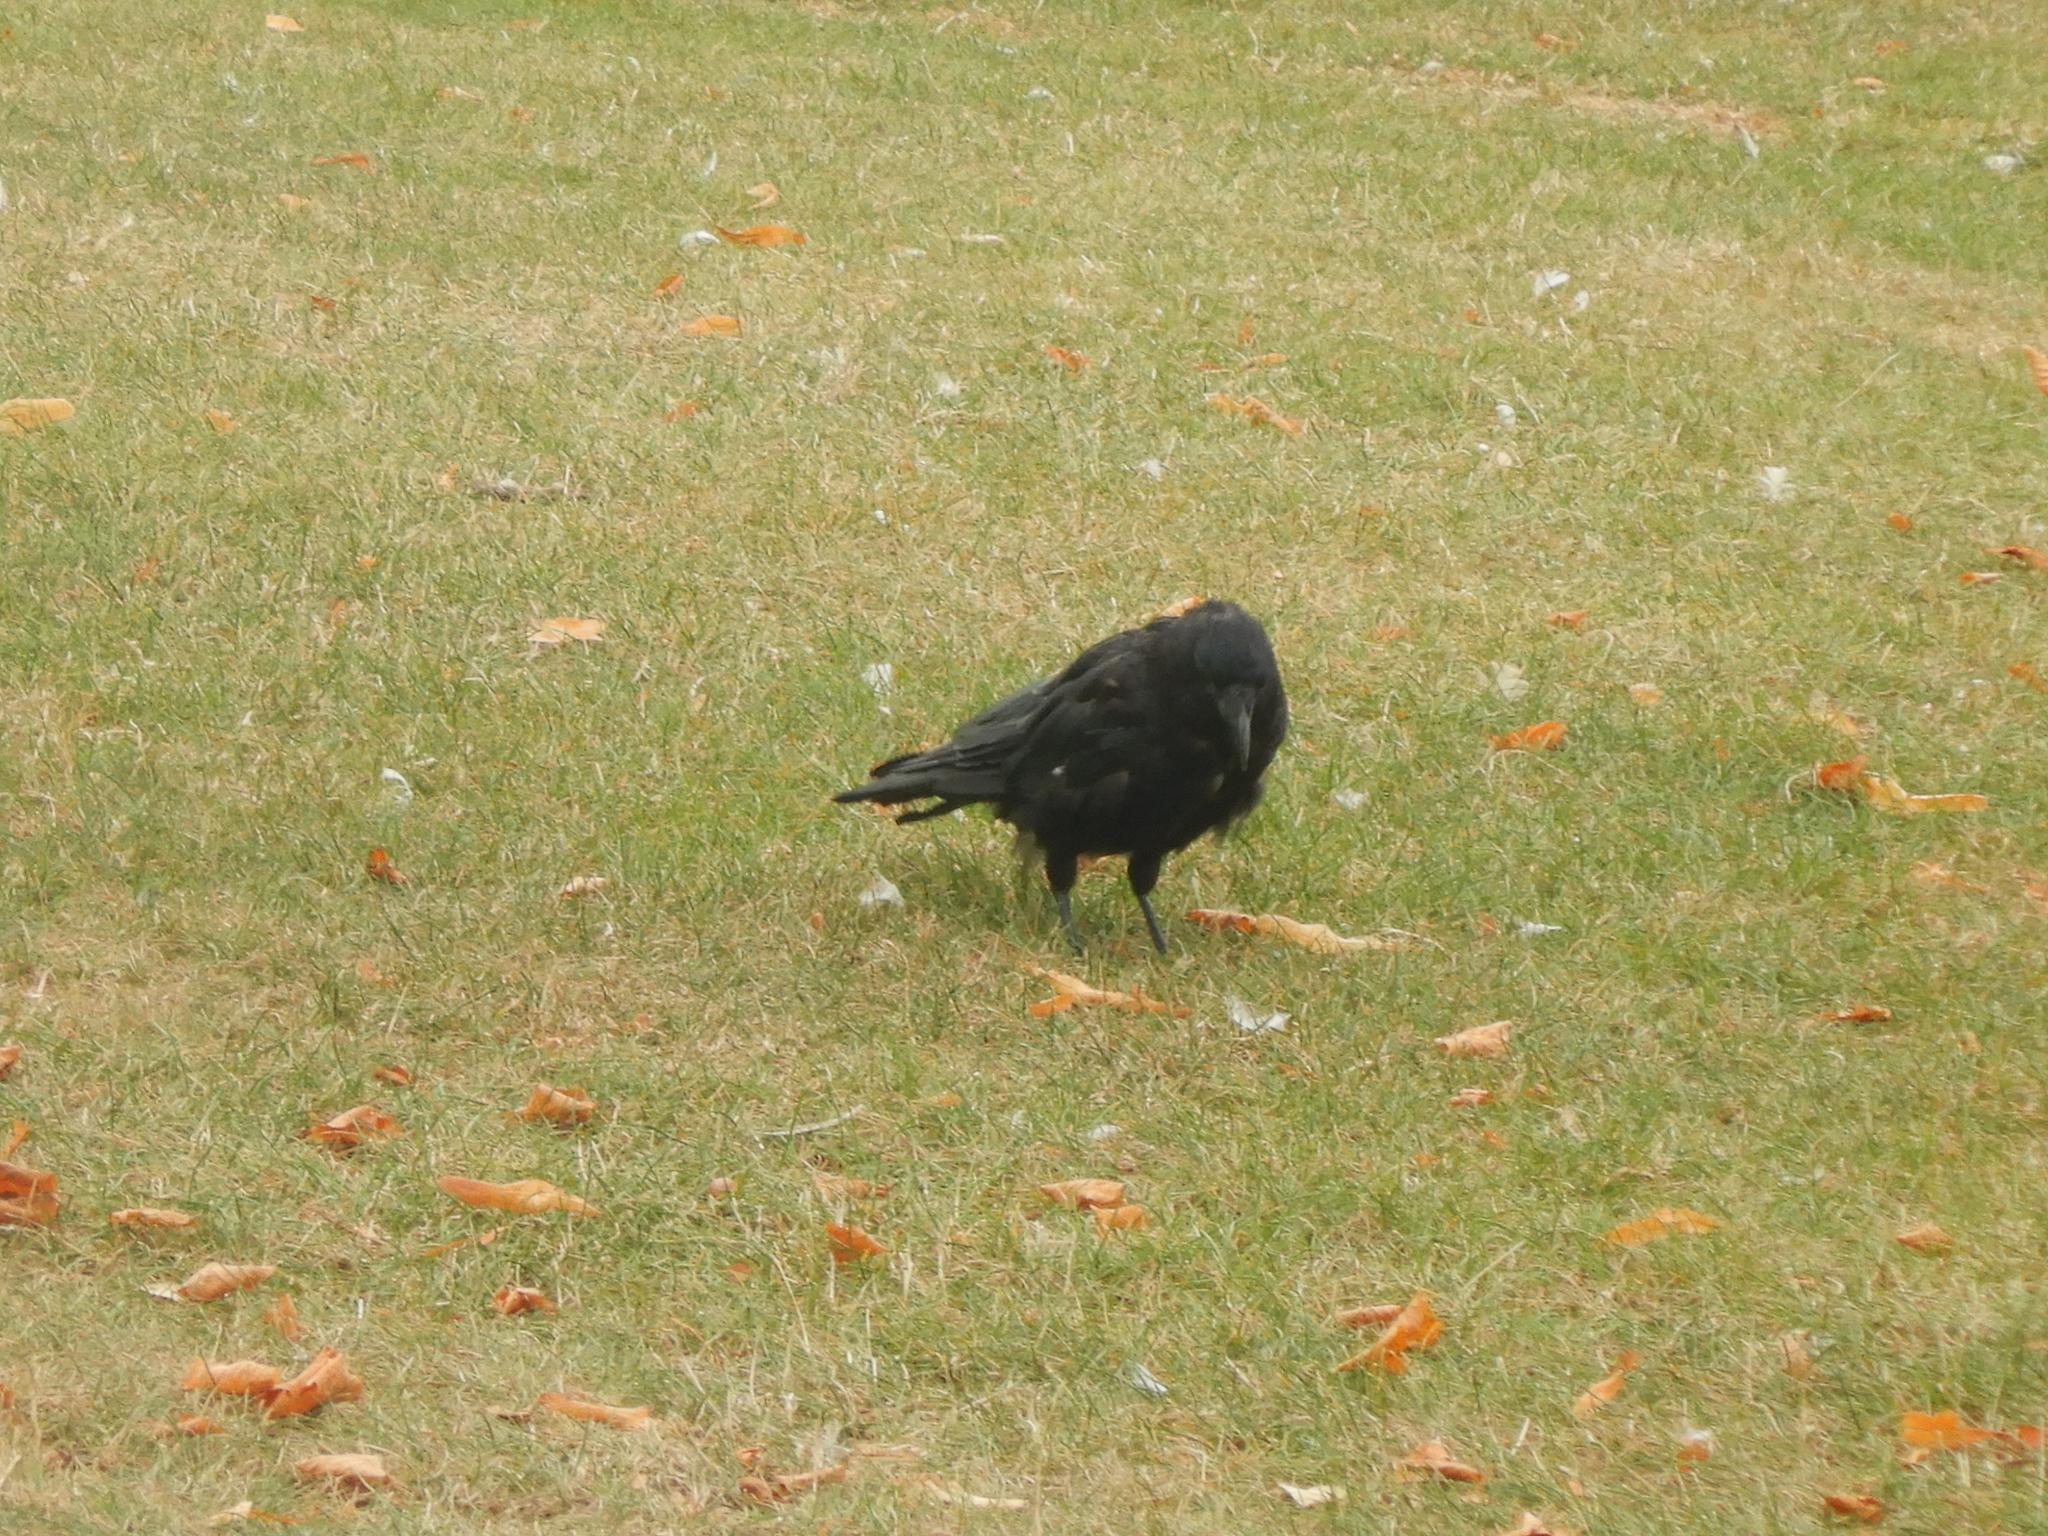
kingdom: Animalia
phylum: Chordata
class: Aves
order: Passeriformes
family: Corvidae
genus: Corvus
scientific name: Corvus corone
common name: Carrion crow
